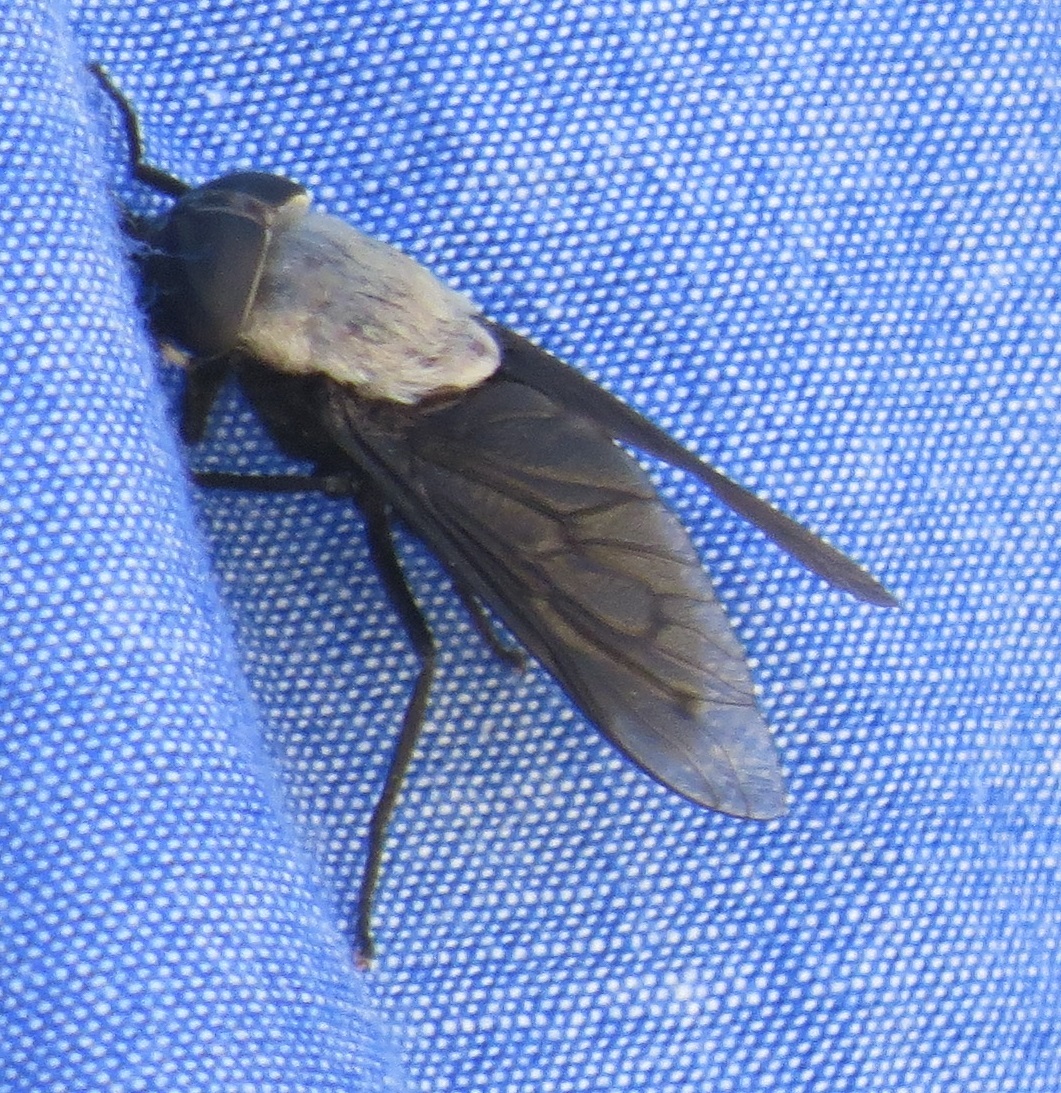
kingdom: Animalia
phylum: Arthropoda
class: Insecta
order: Diptera
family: Tabanidae
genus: Tabanus
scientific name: Tabanus punctifer
